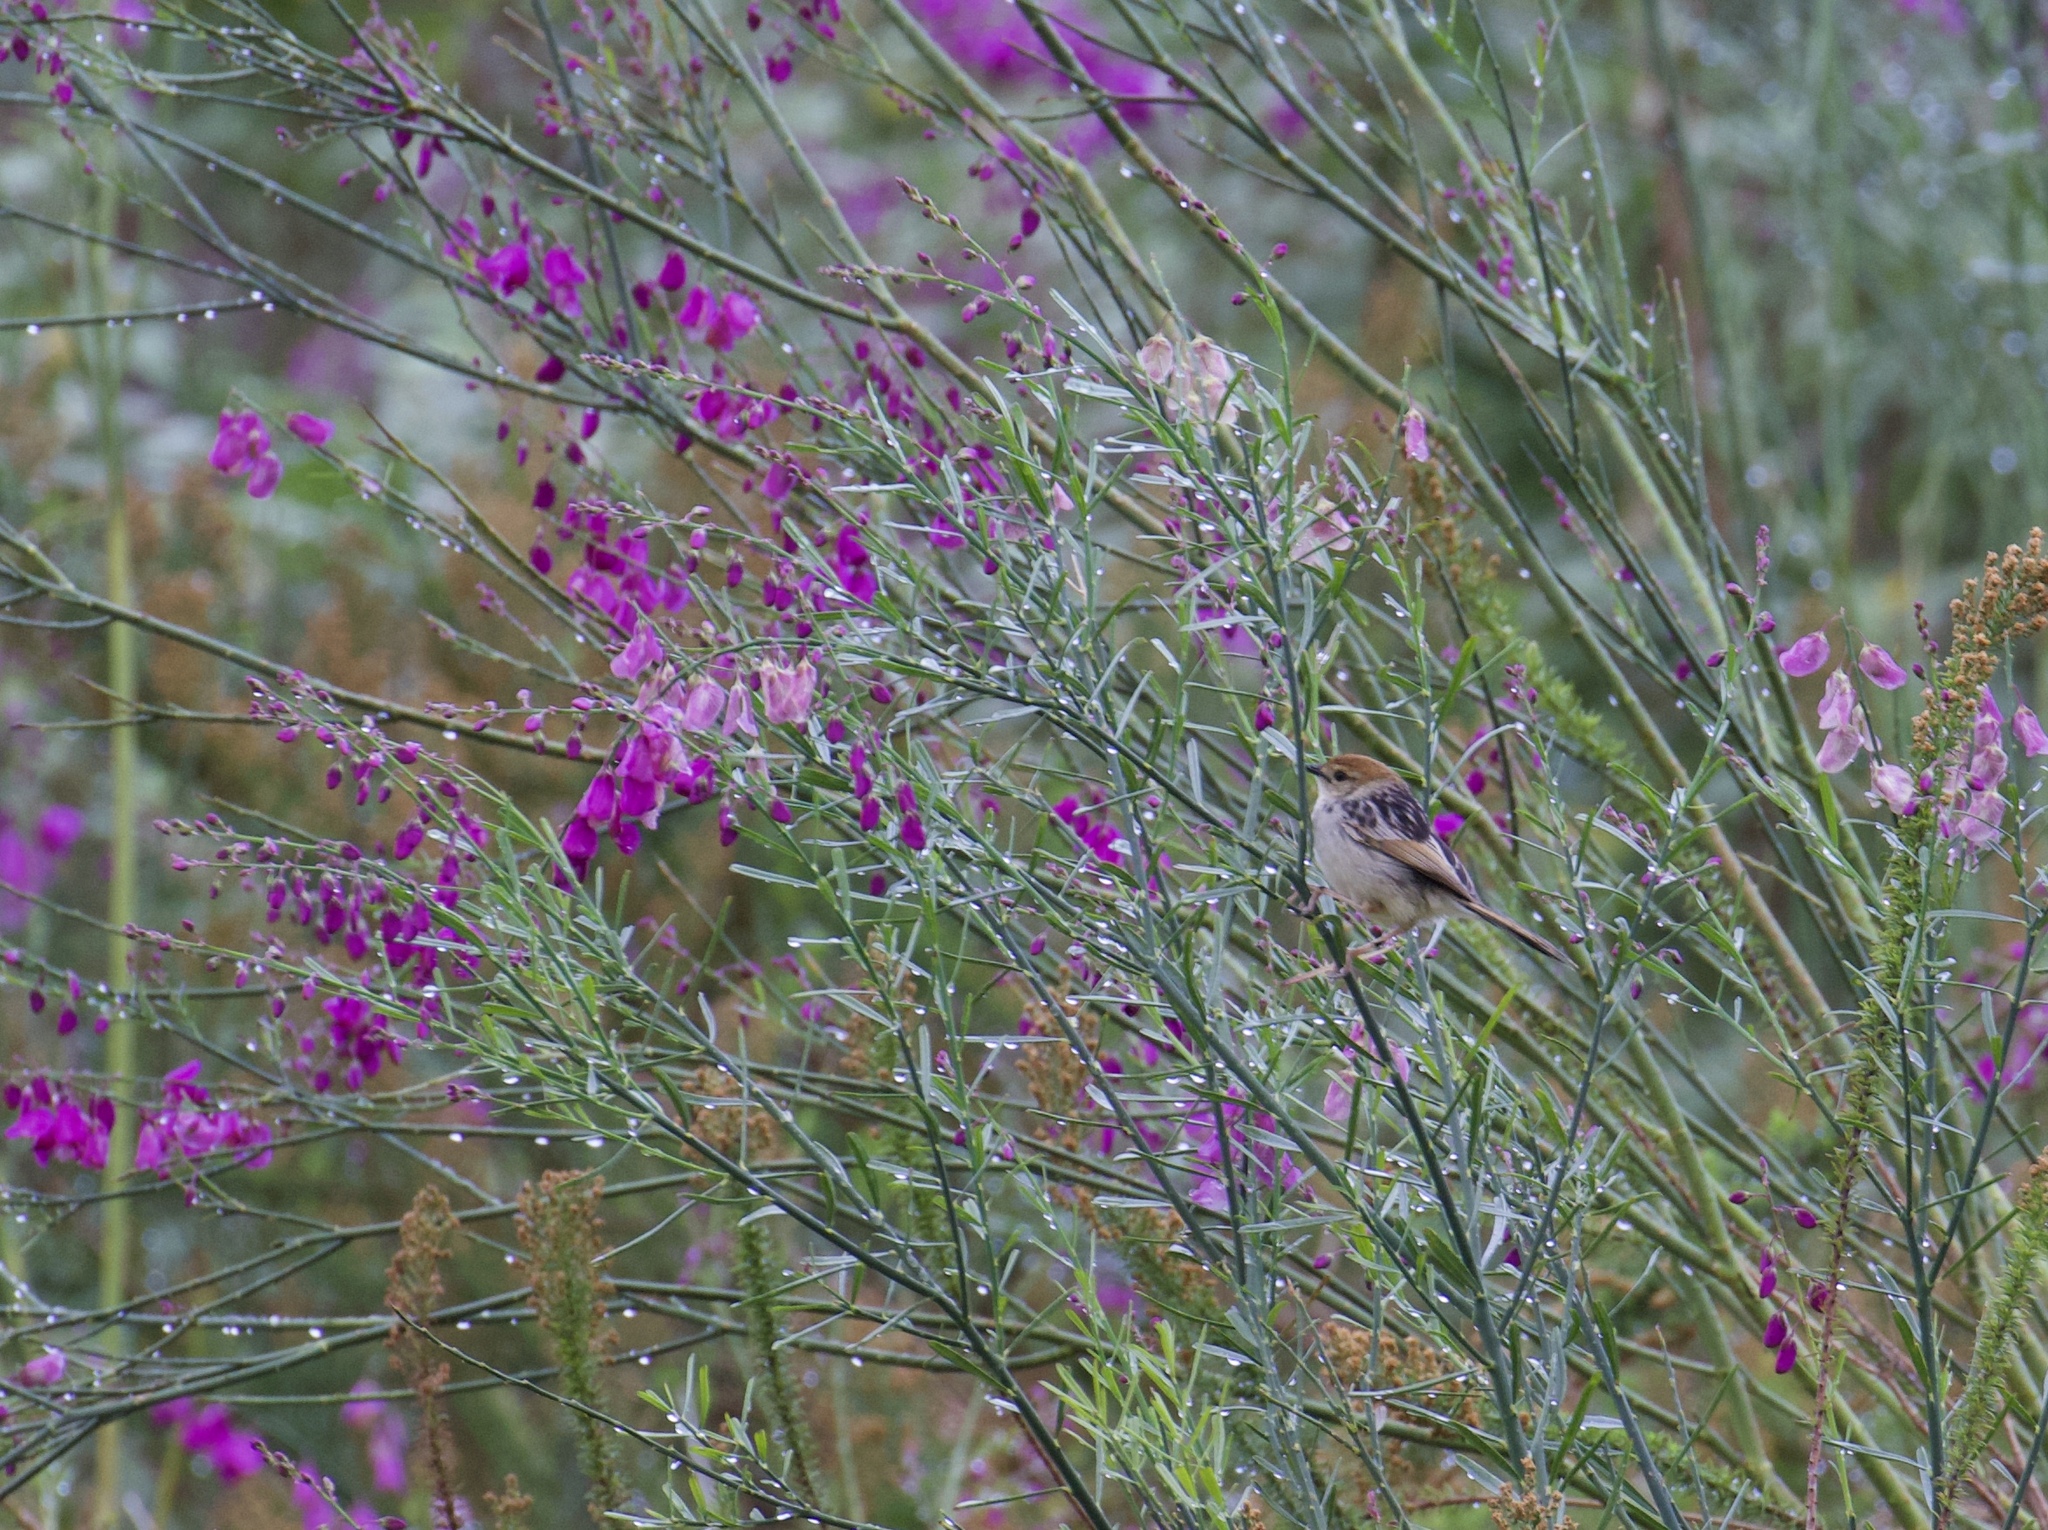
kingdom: Animalia
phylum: Chordata
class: Aves
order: Passeriformes
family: Cisticolidae
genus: Cisticola
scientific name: Cisticola tinniens
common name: Levaillant's cisticola
